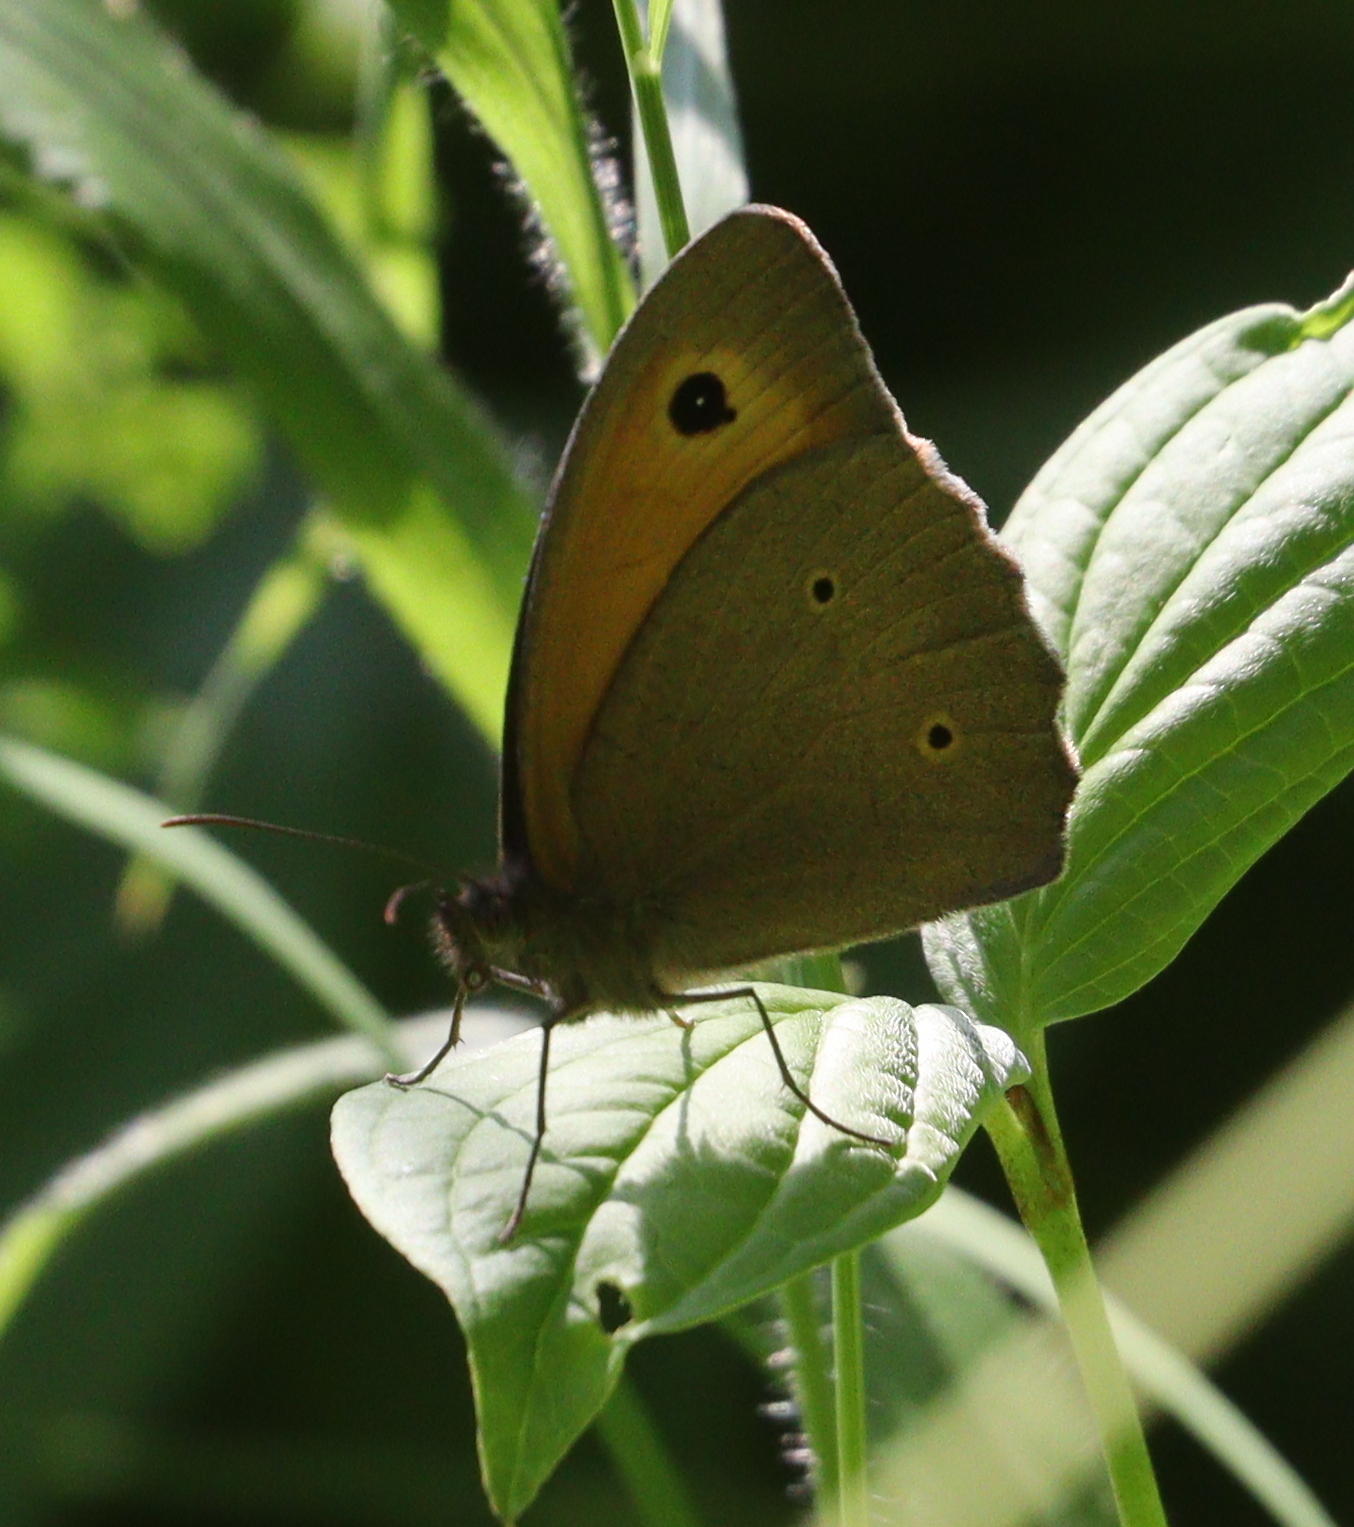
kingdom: Animalia
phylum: Arthropoda
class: Insecta
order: Lepidoptera
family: Nymphalidae
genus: Maniola
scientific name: Maniola jurtina
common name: Meadow brown
